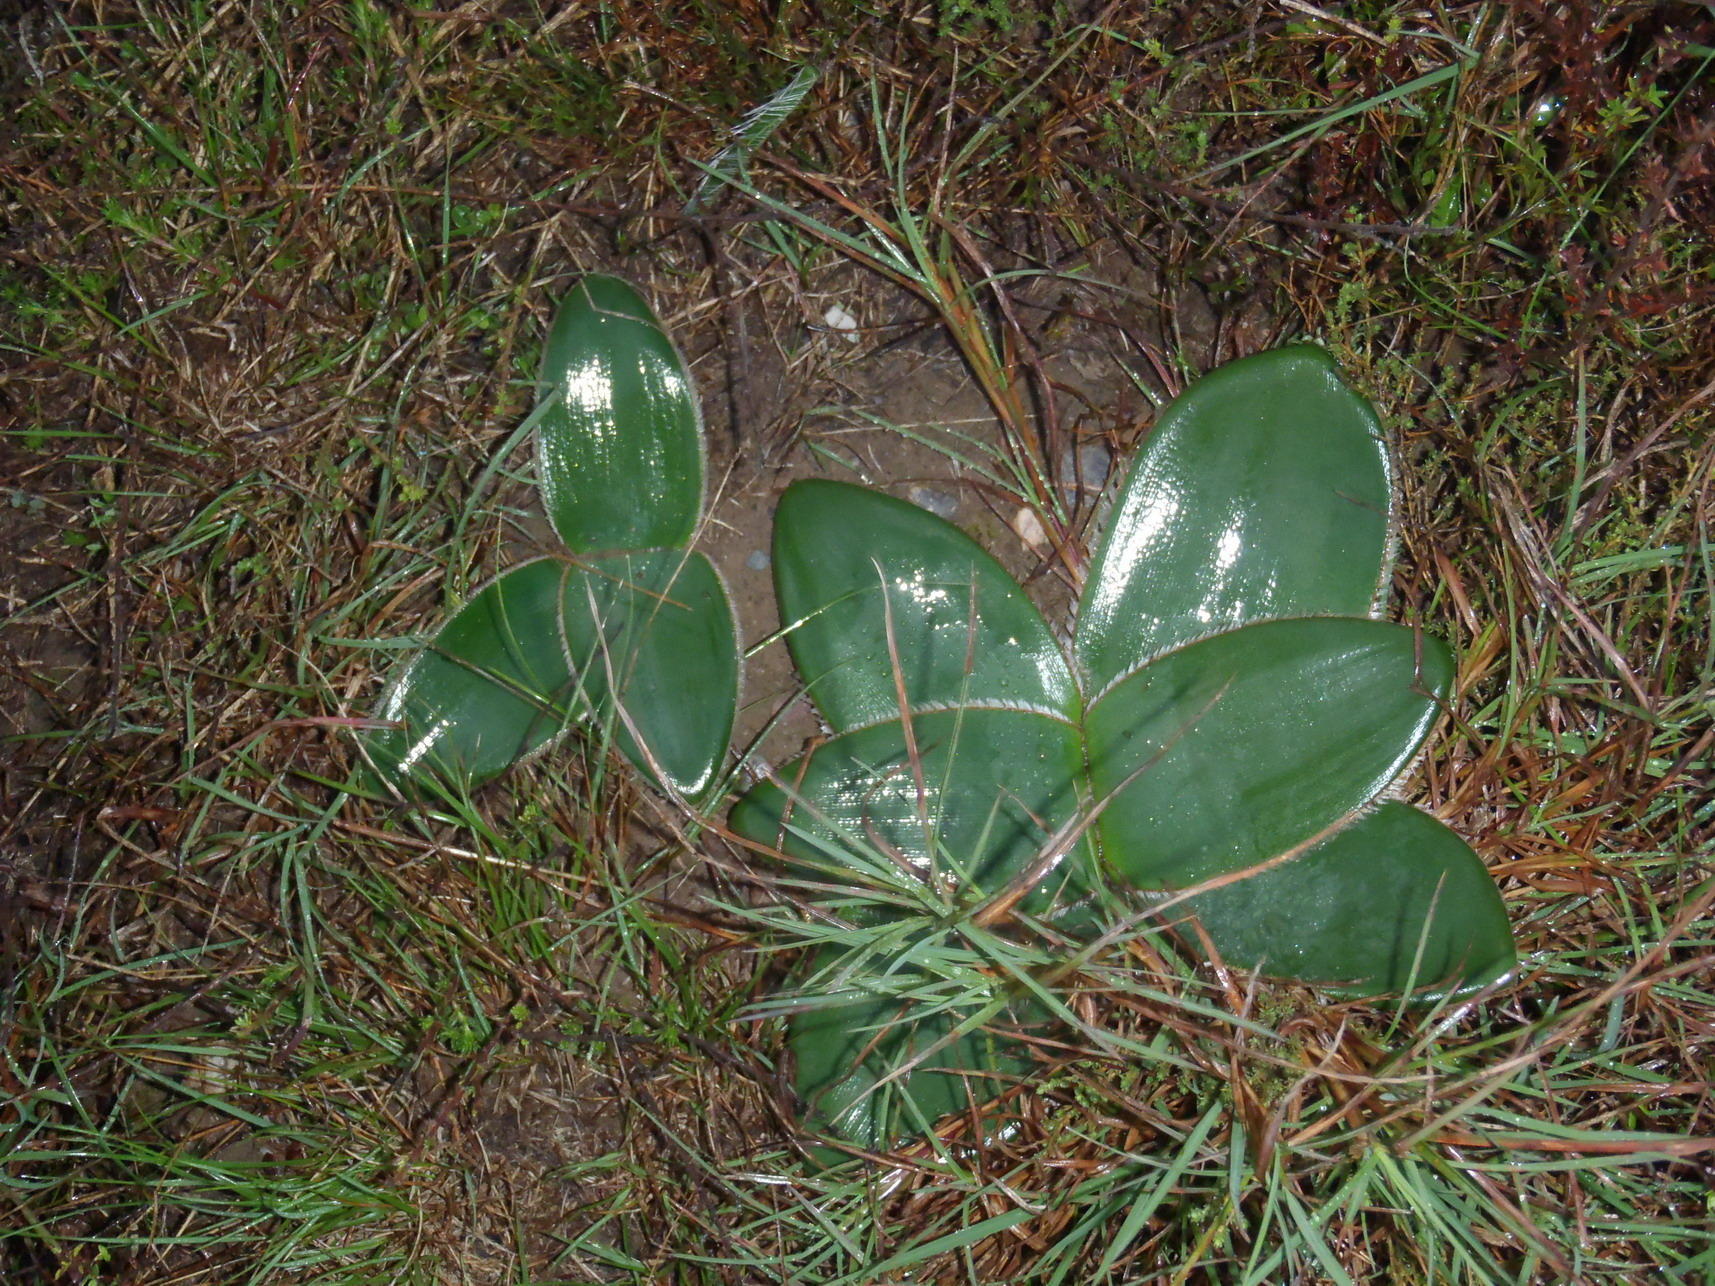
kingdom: Plantae
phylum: Tracheophyta
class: Liliopsida
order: Asparagales
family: Amaryllidaceae
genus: Crossyne
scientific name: Crossyne guttata
